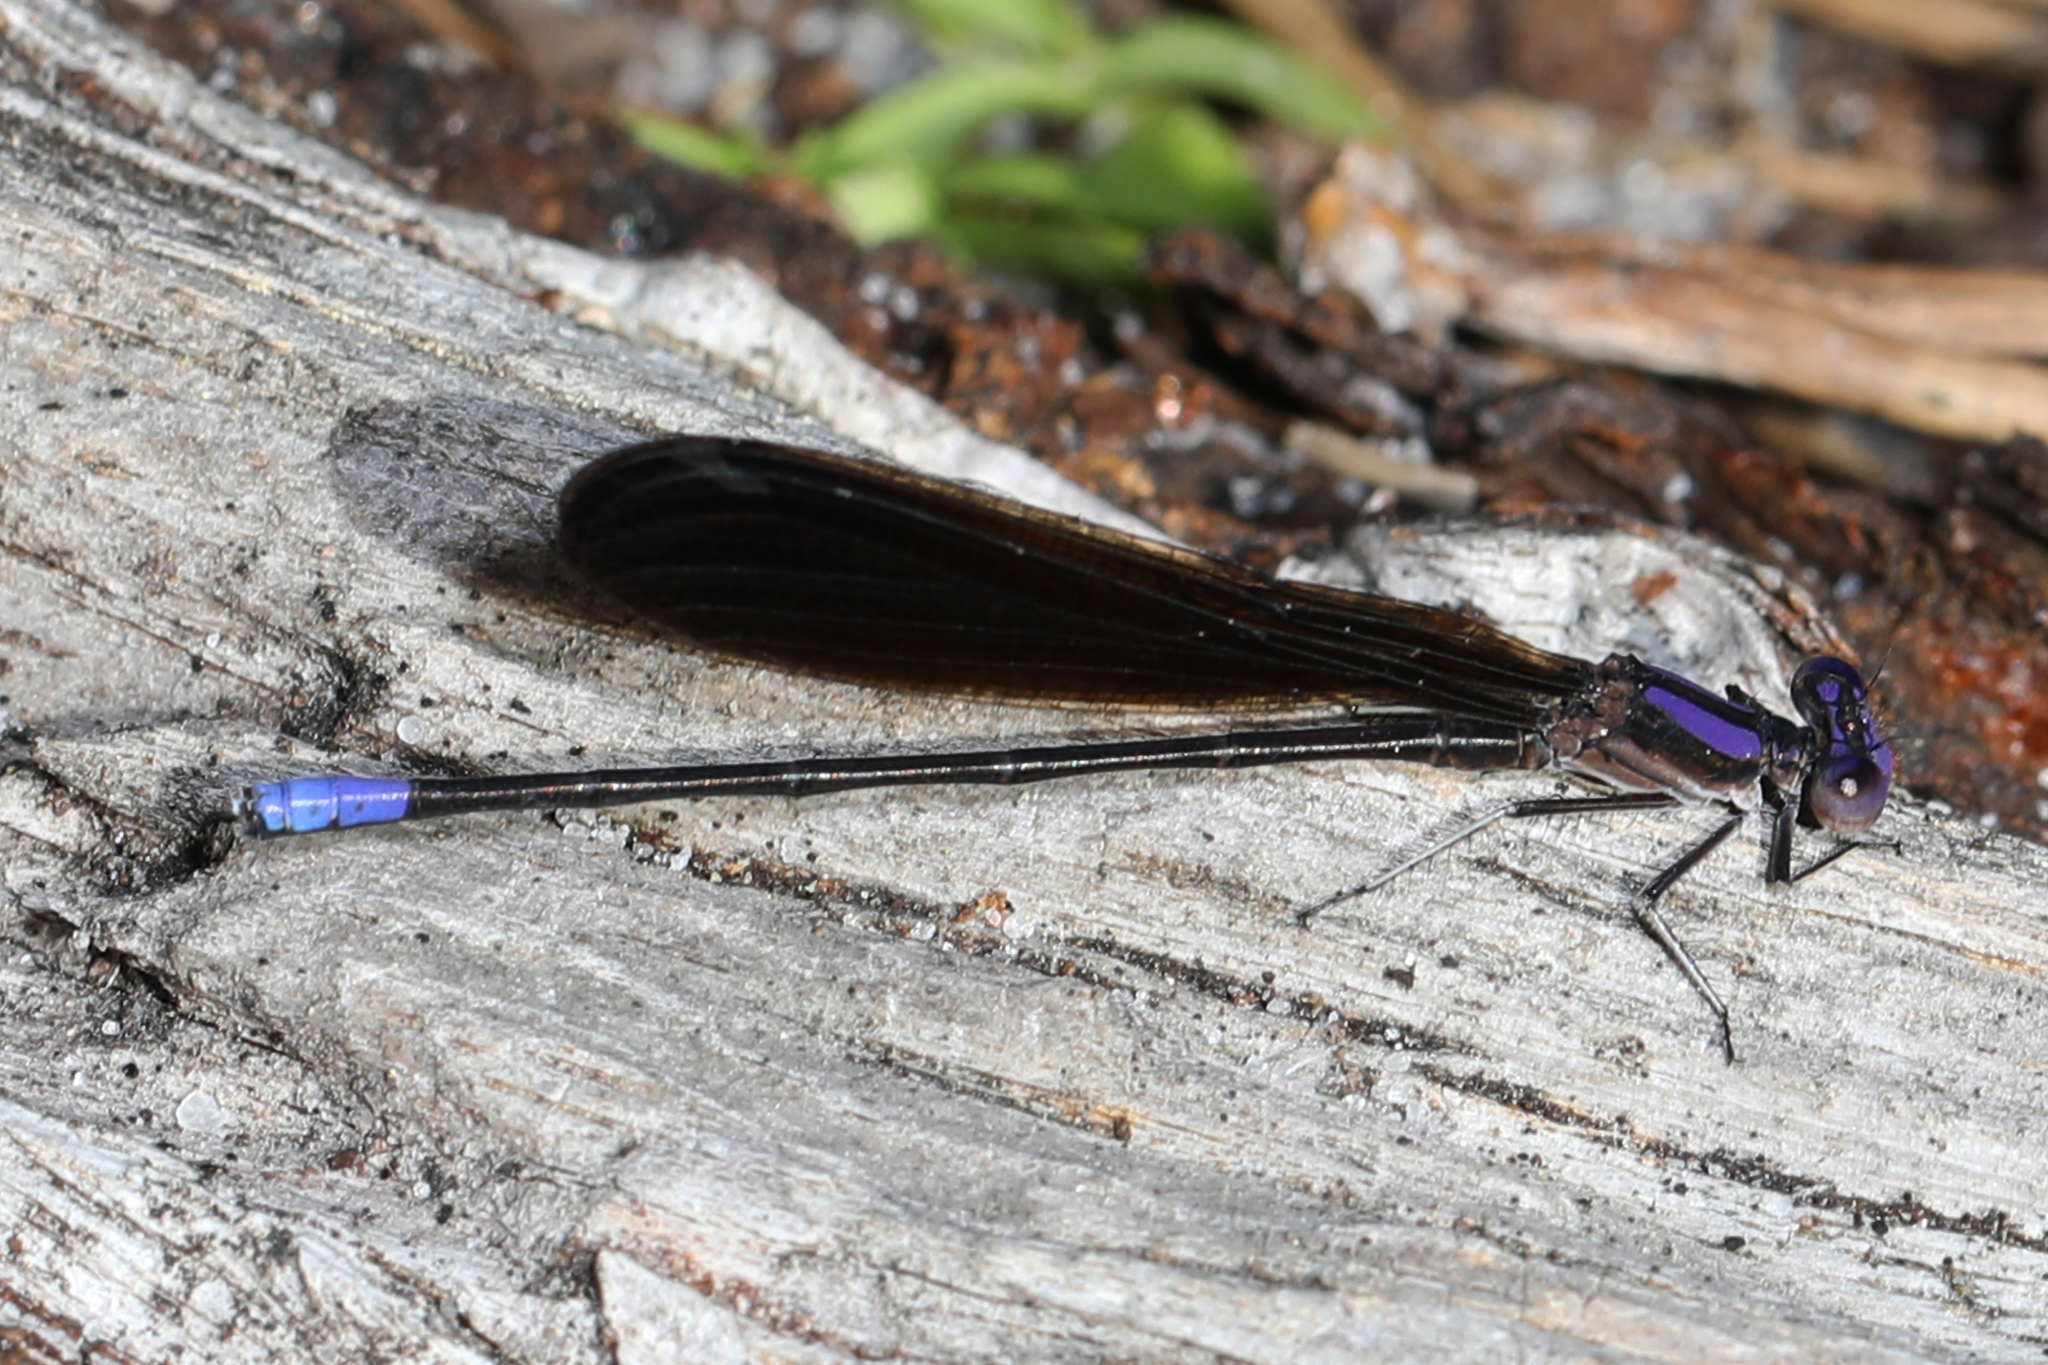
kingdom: Animalia
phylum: Arthropoda
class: Insecta
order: Odonata
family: Coenagrionidae
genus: Argia
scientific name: Argia fumipennis
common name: Variable dancer
